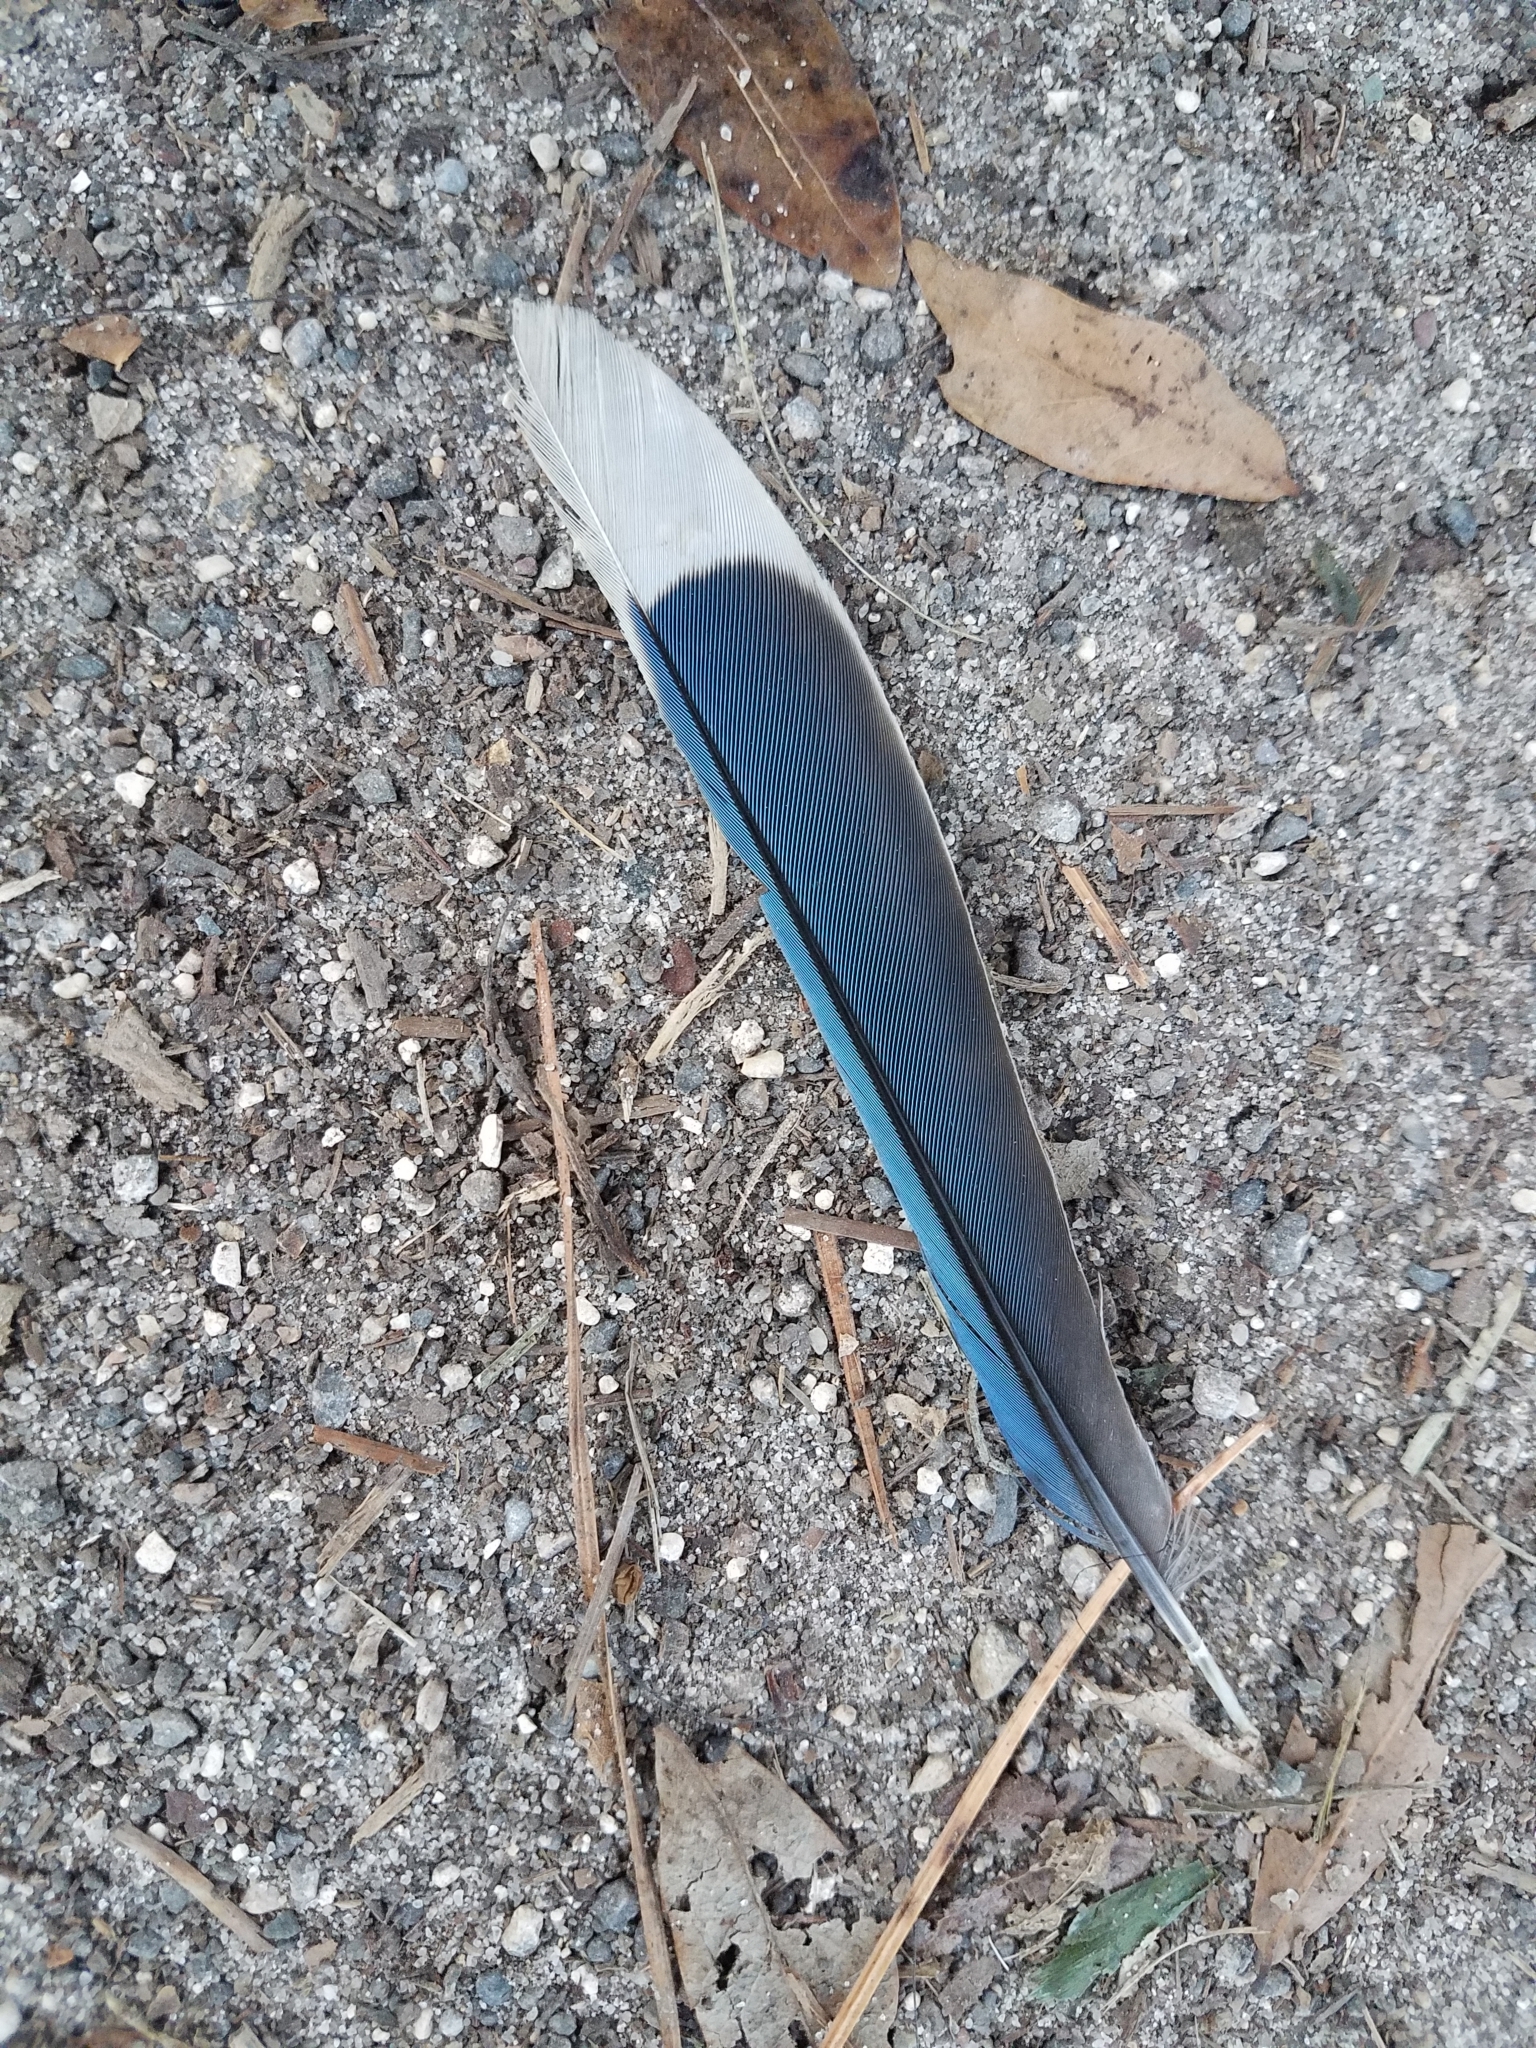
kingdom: Animalia
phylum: Chordata
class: Aves
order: Passeriformes
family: Corvidae
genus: Cyanocitta
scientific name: Cyanocitta cristata
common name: Blue jay
